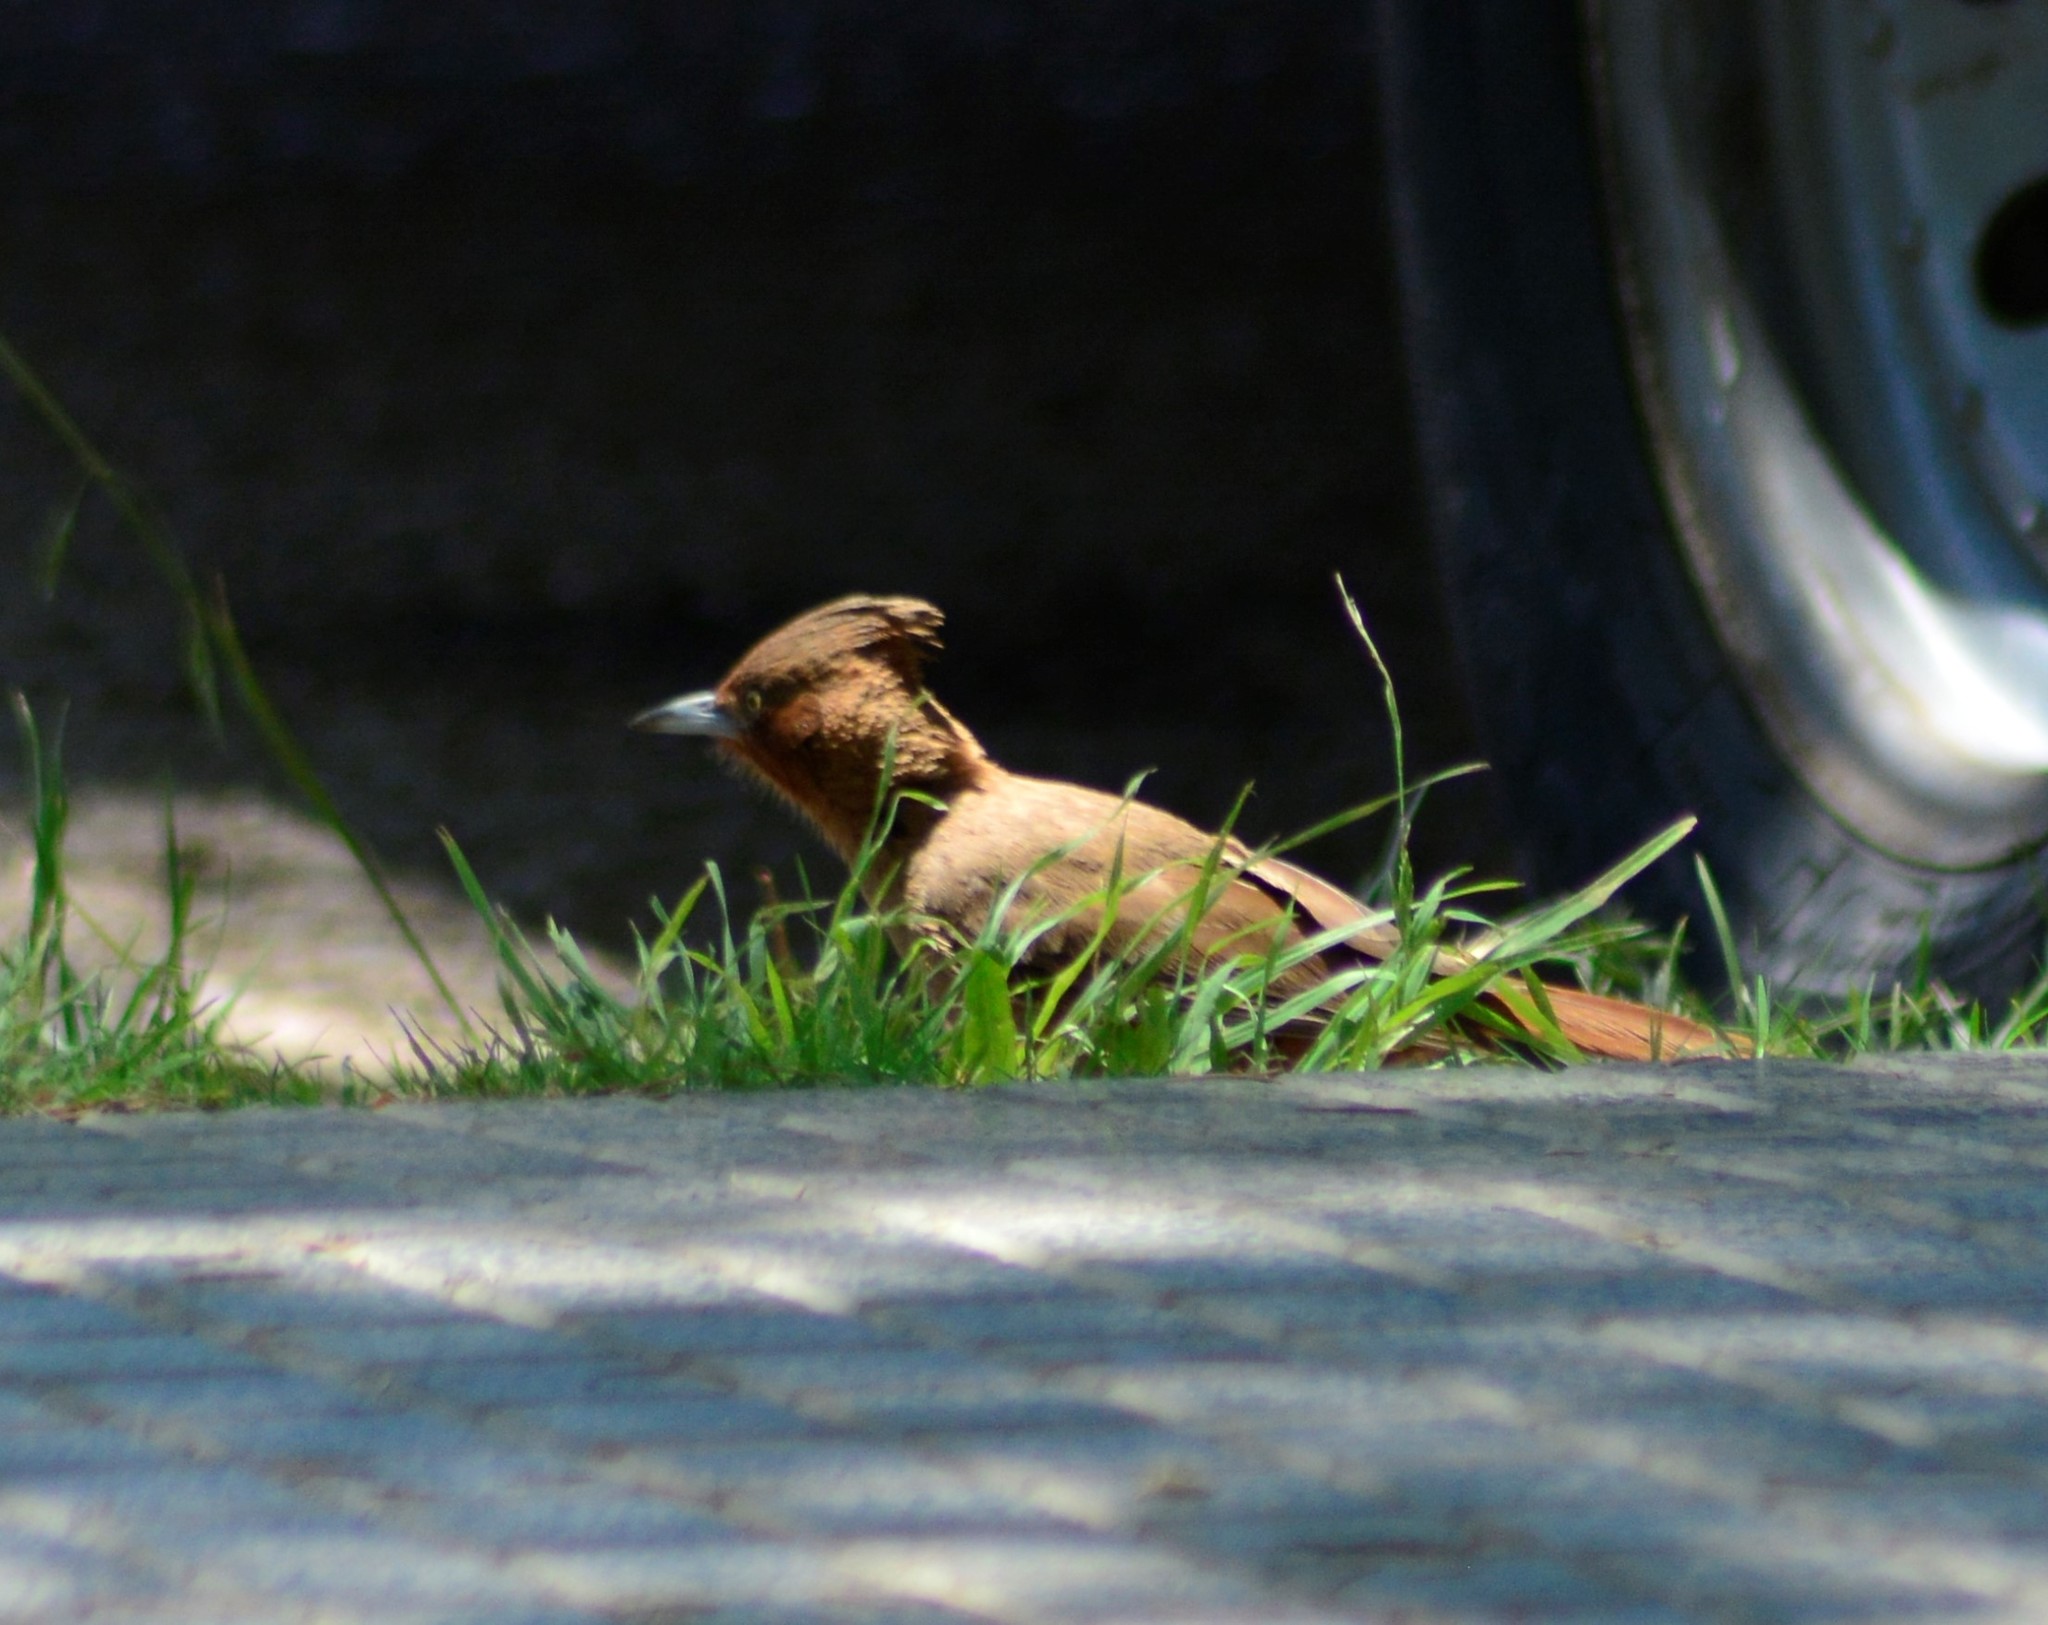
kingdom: Animalia
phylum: Chordata
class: Aves
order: Passeriformes
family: Furnariidae
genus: Pseudoseisura
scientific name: Pseudoseisura lophotes
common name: Brown cacholote
